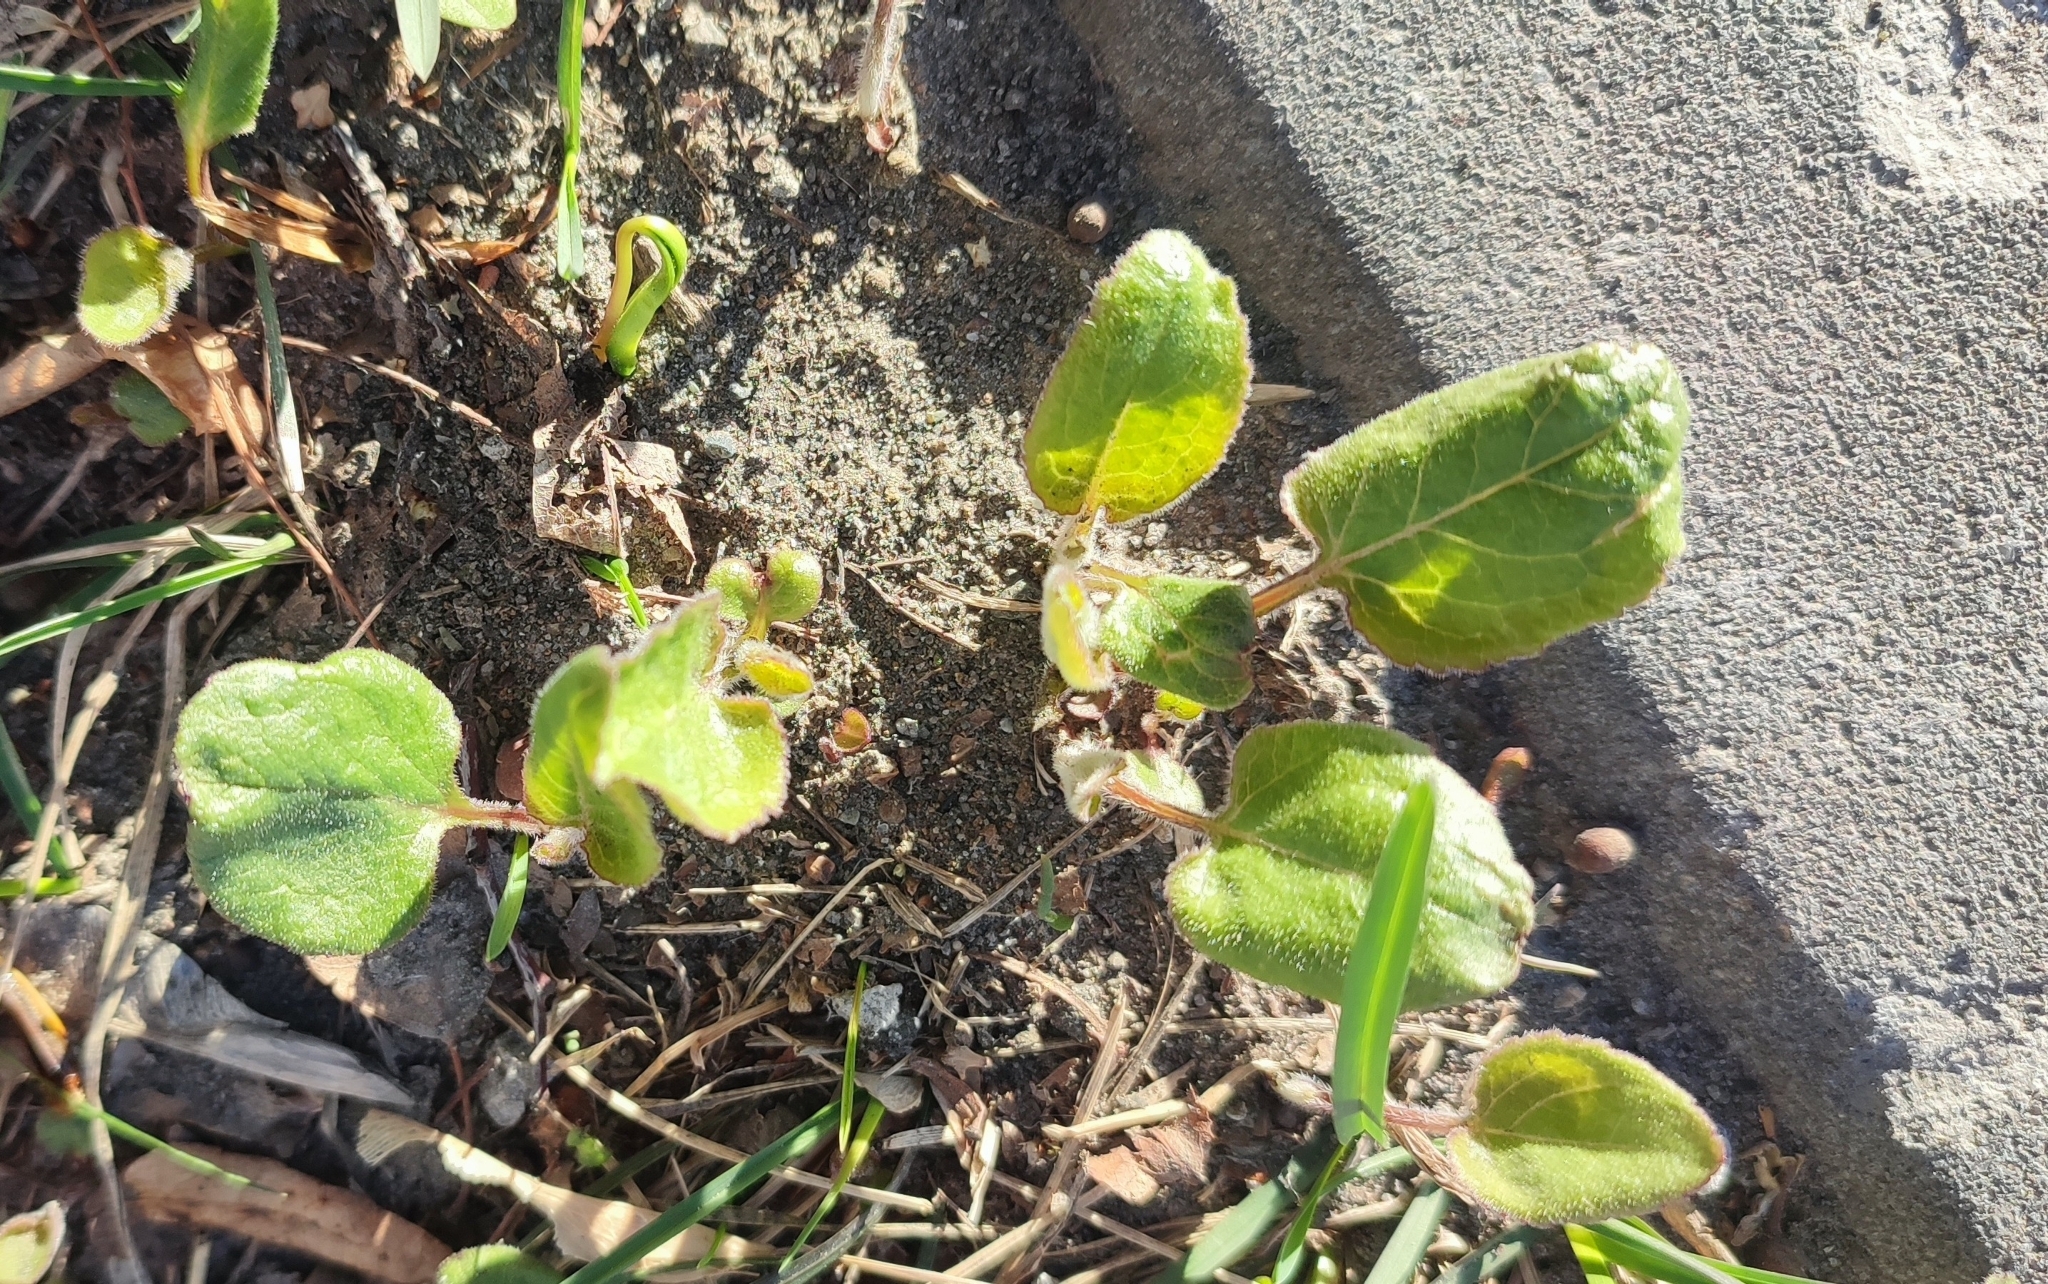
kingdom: Plantae
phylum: Tracheophyta
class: Magnoliopsida
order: Asterales
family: Campanulaceae
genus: Campanula
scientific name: Campanula rapunculoides
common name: Creeping bellflower
